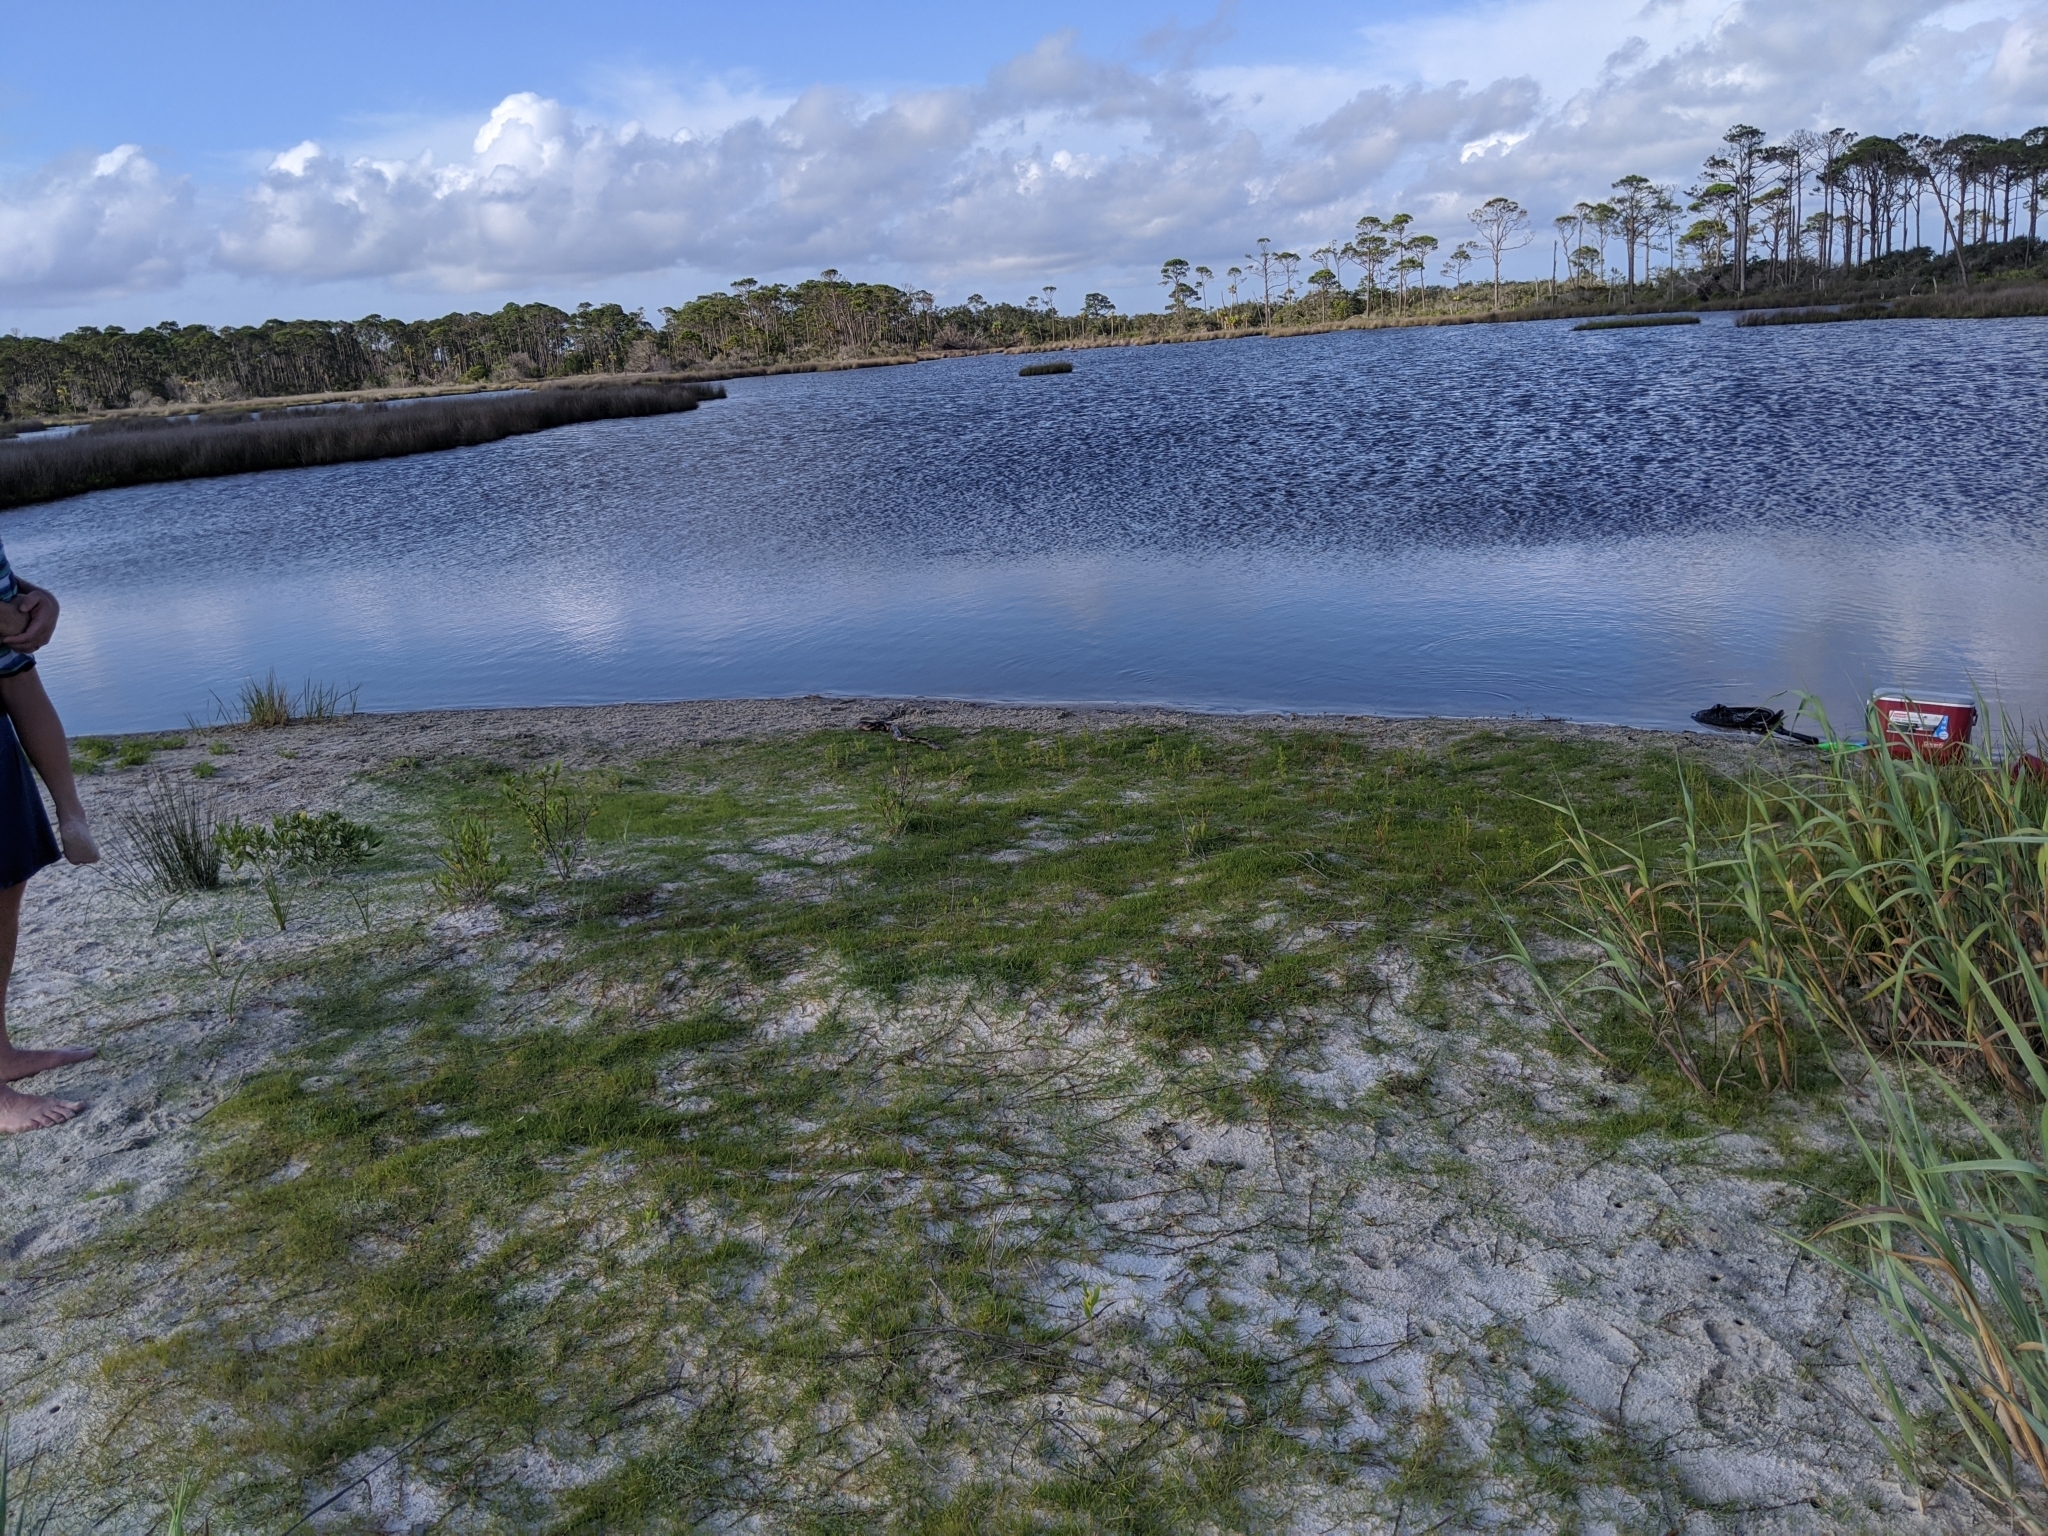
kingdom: Animalia
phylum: Chordata
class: Squamata
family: Colubridae
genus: Lampropeltis
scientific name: Lampropeltis getula
